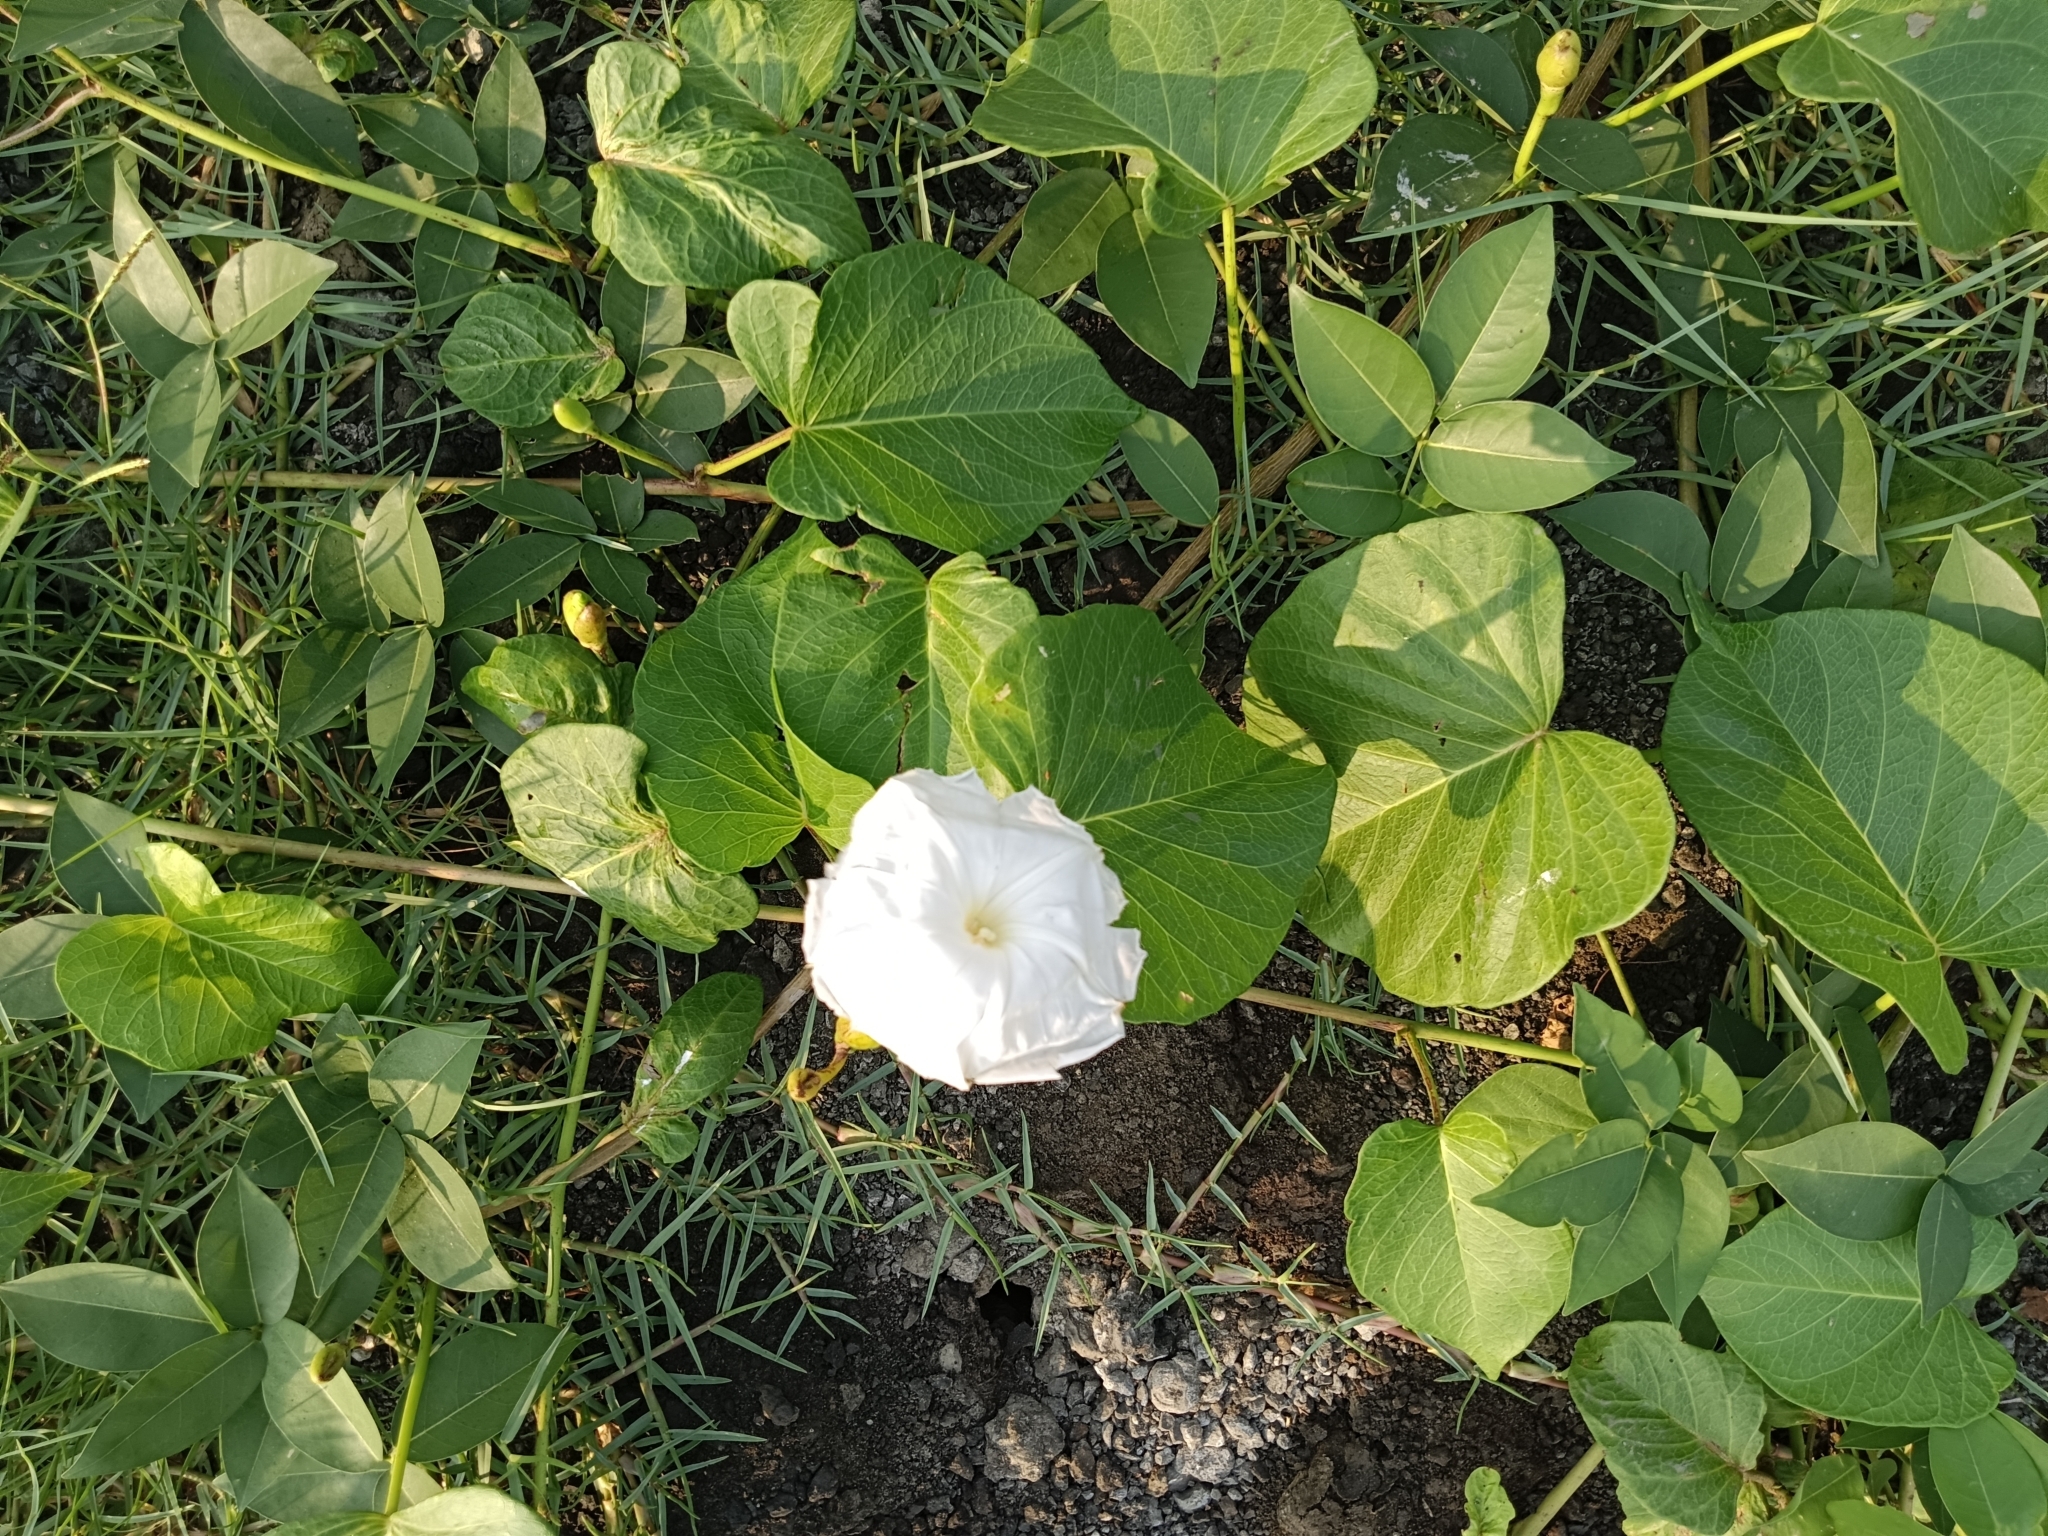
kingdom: Plantae
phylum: Tracheophyta
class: Magnoliopsida
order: Solanales
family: Convolvulaceae
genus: Ipomoea
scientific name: Ipomoea violacea
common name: Beach moonflower
